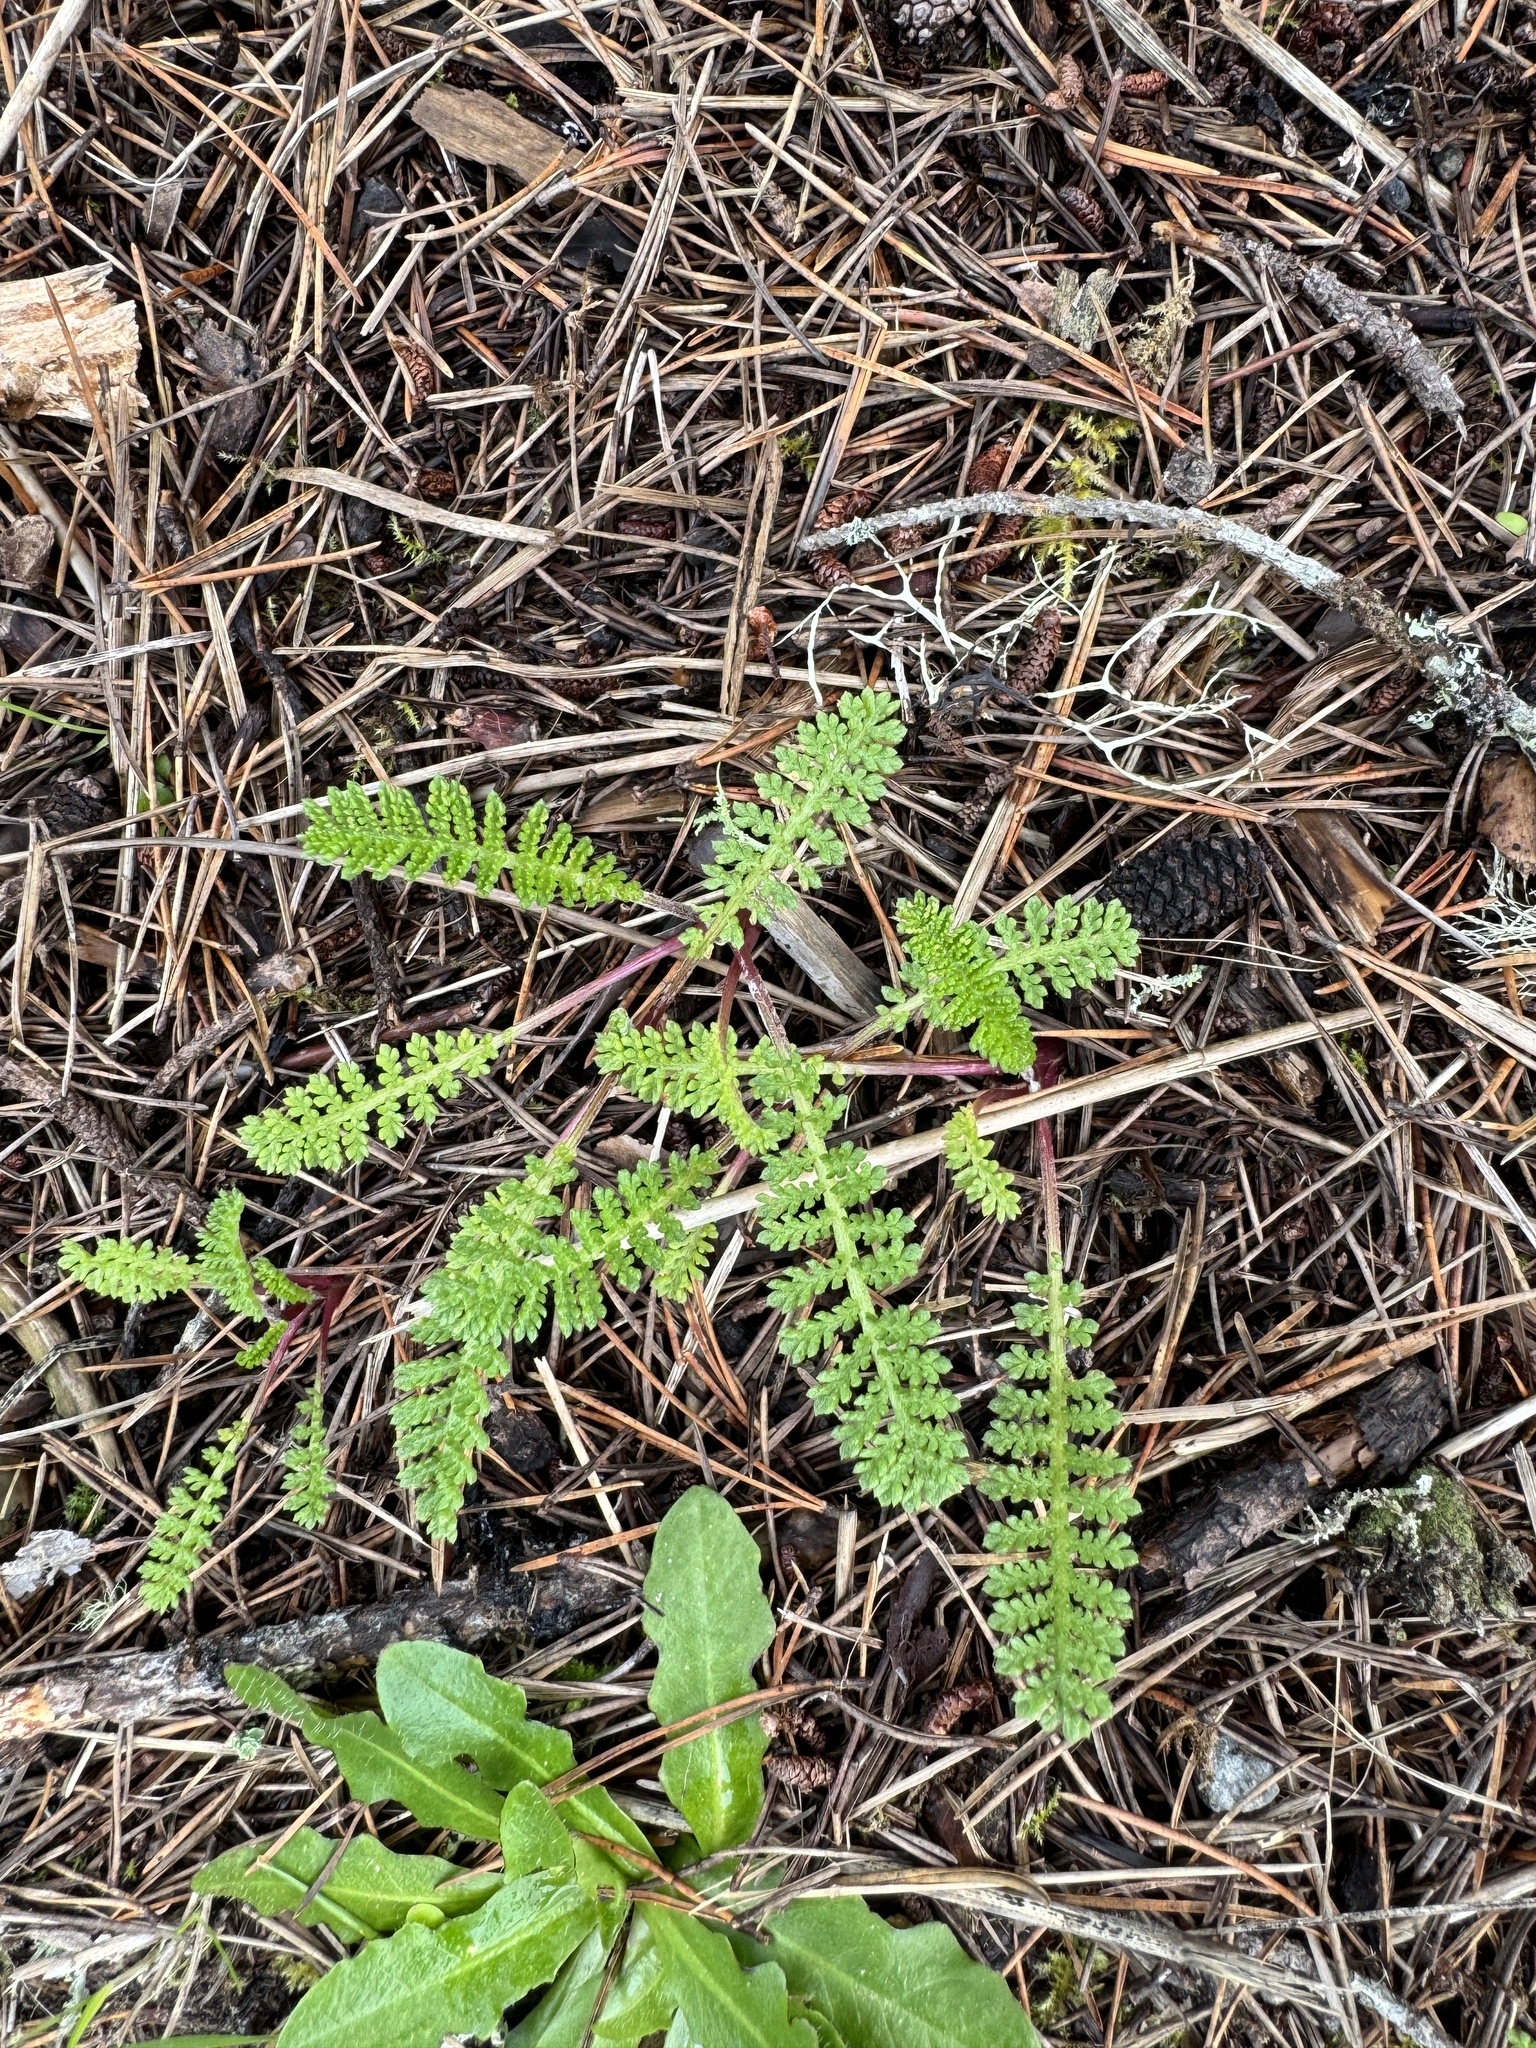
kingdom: Plantae
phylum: Tracheophyta
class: Magnoliopsida
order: Asterales
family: Asteraceae
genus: Tanacetum
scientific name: Tanacetum bipinnatum
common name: Dwarf tansy
